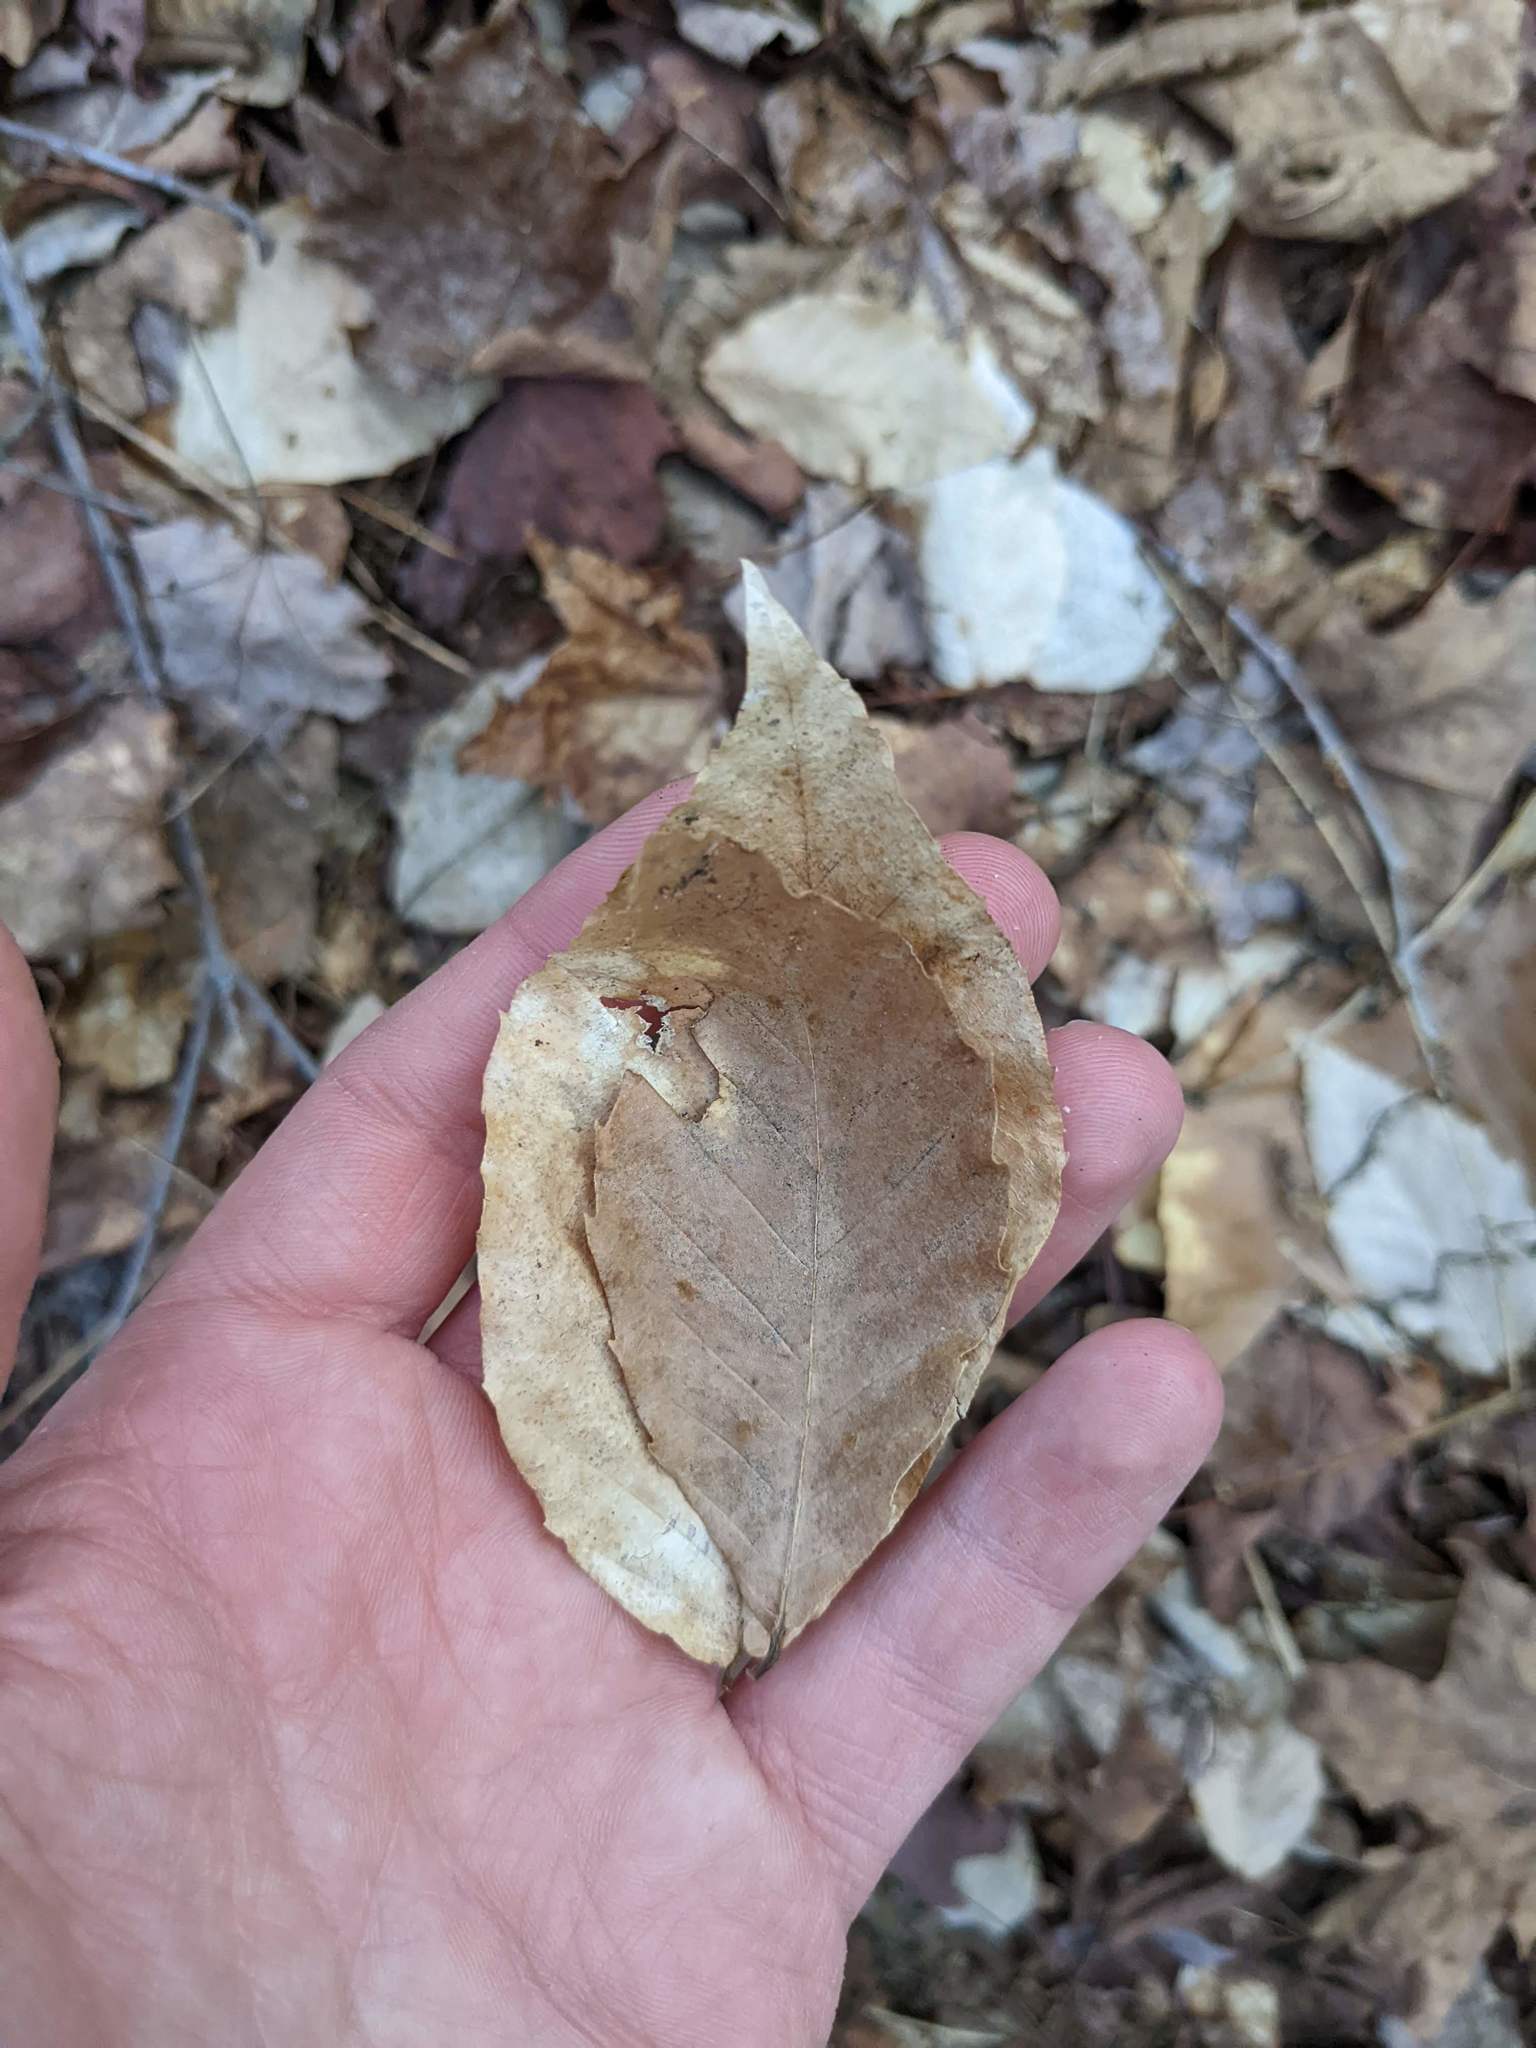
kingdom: Plantae
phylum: Tracheophyta
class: Magnoliopsida
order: Fagales
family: Fagaceae
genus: Fagus
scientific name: Fagus grandifolia
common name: American beech
